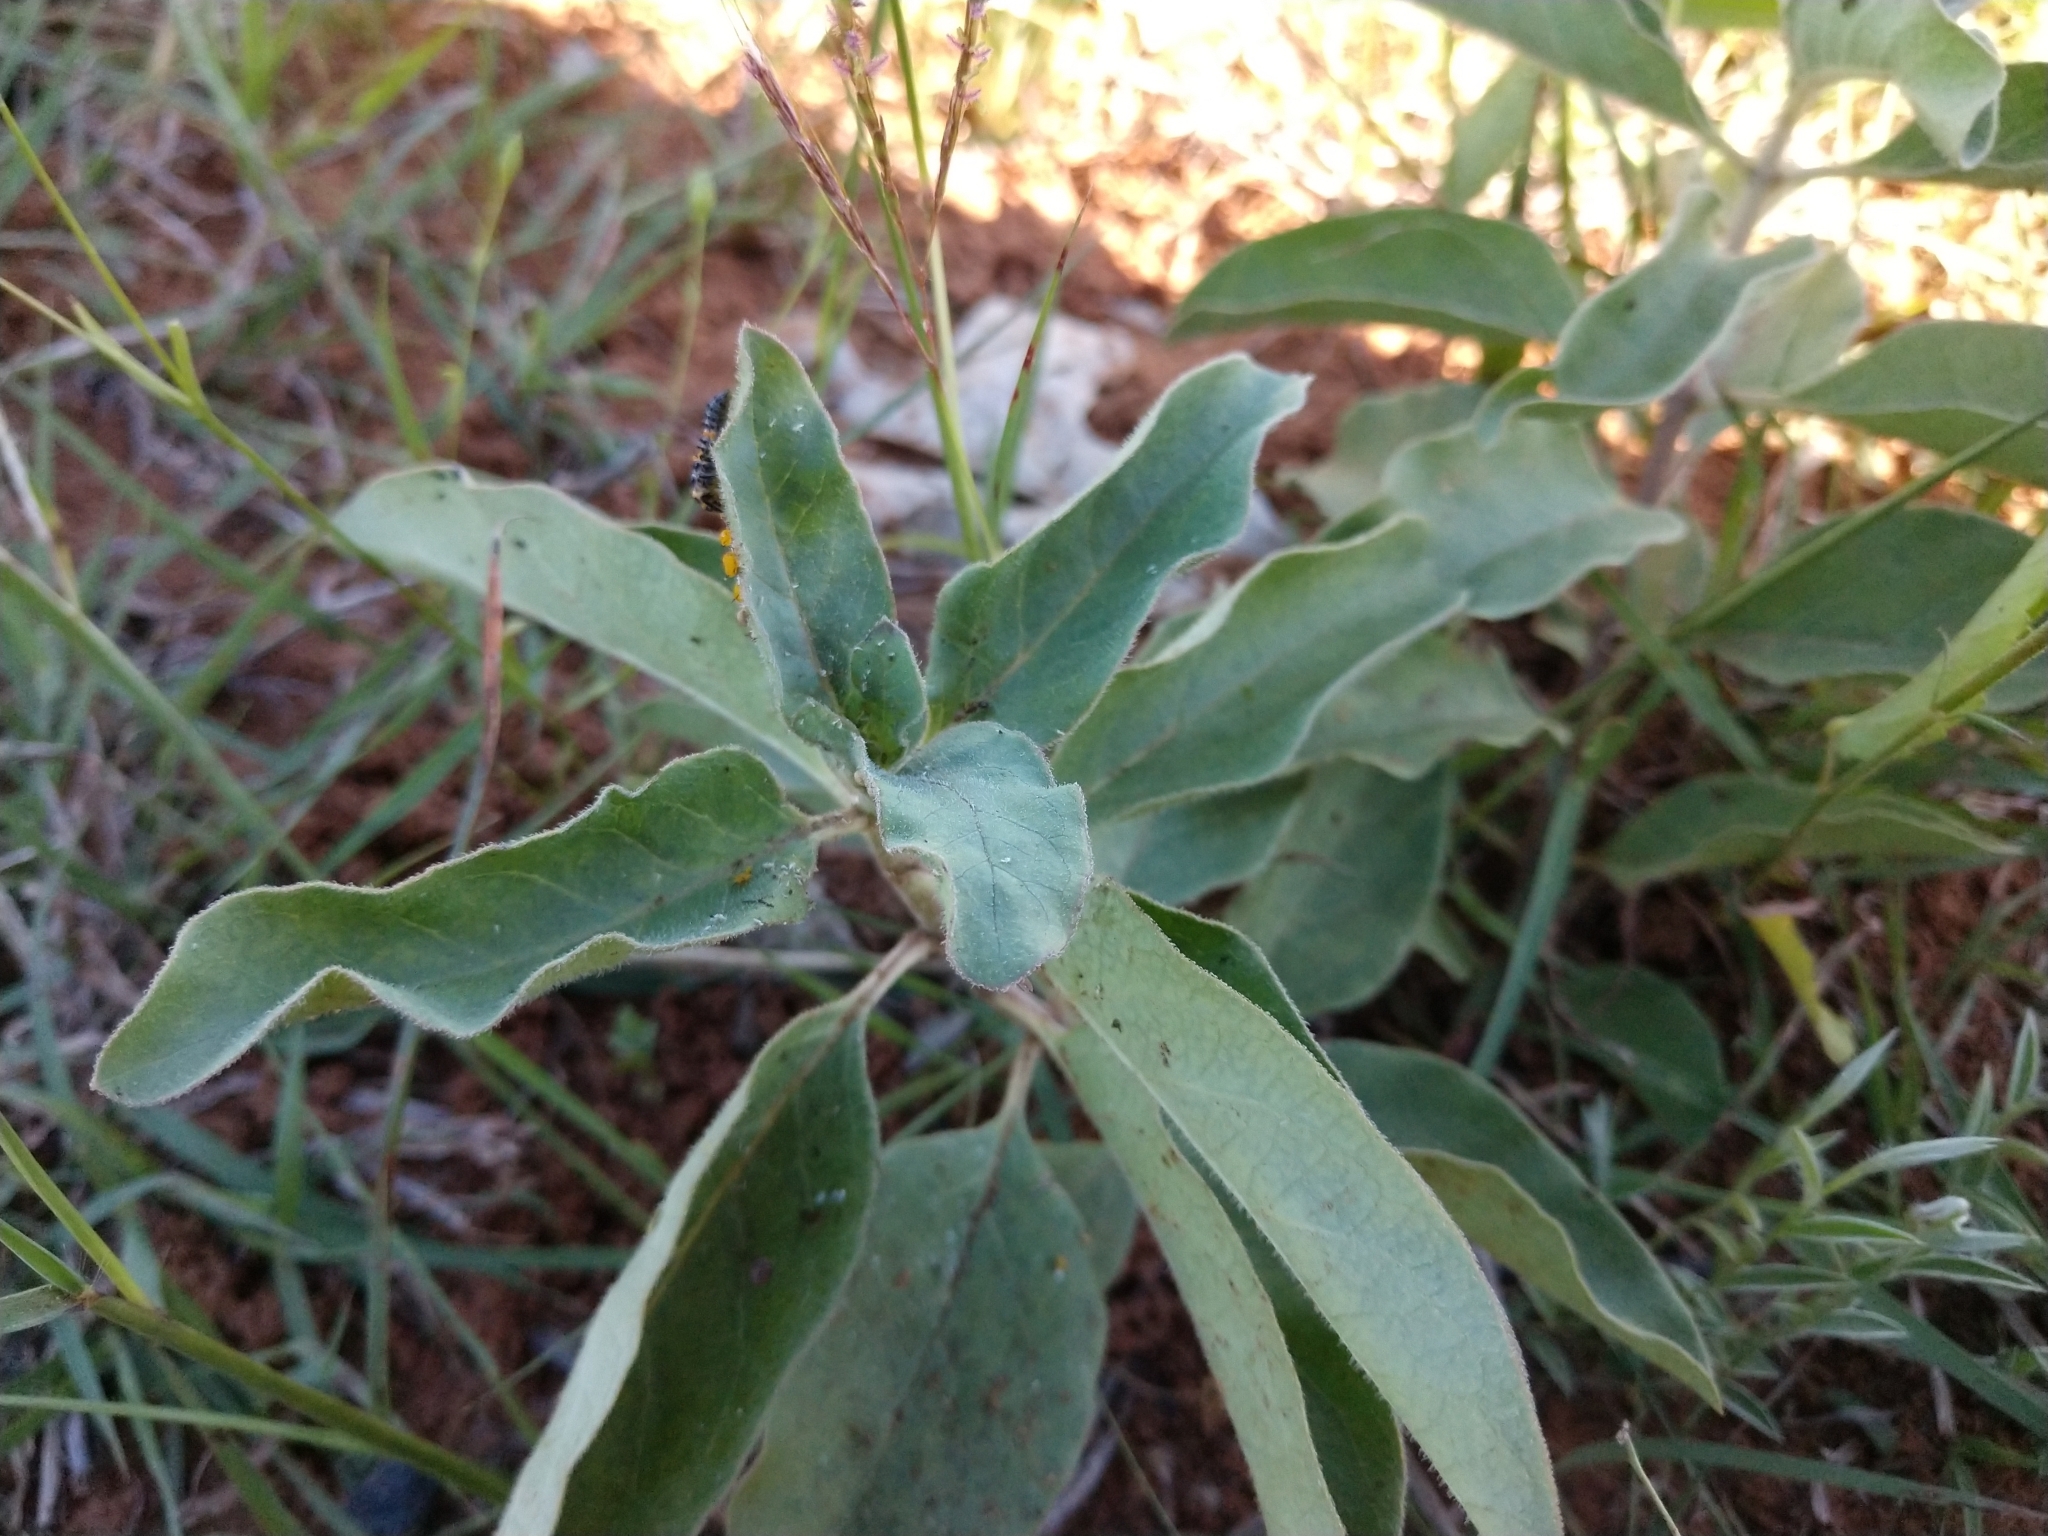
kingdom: Plantae
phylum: Tracheophyta
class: Magnoliopsida
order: Gentianales
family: Apocynaceae
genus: Asclepias
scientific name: Asclepias oenotheroides
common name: Zizotes milkweed
